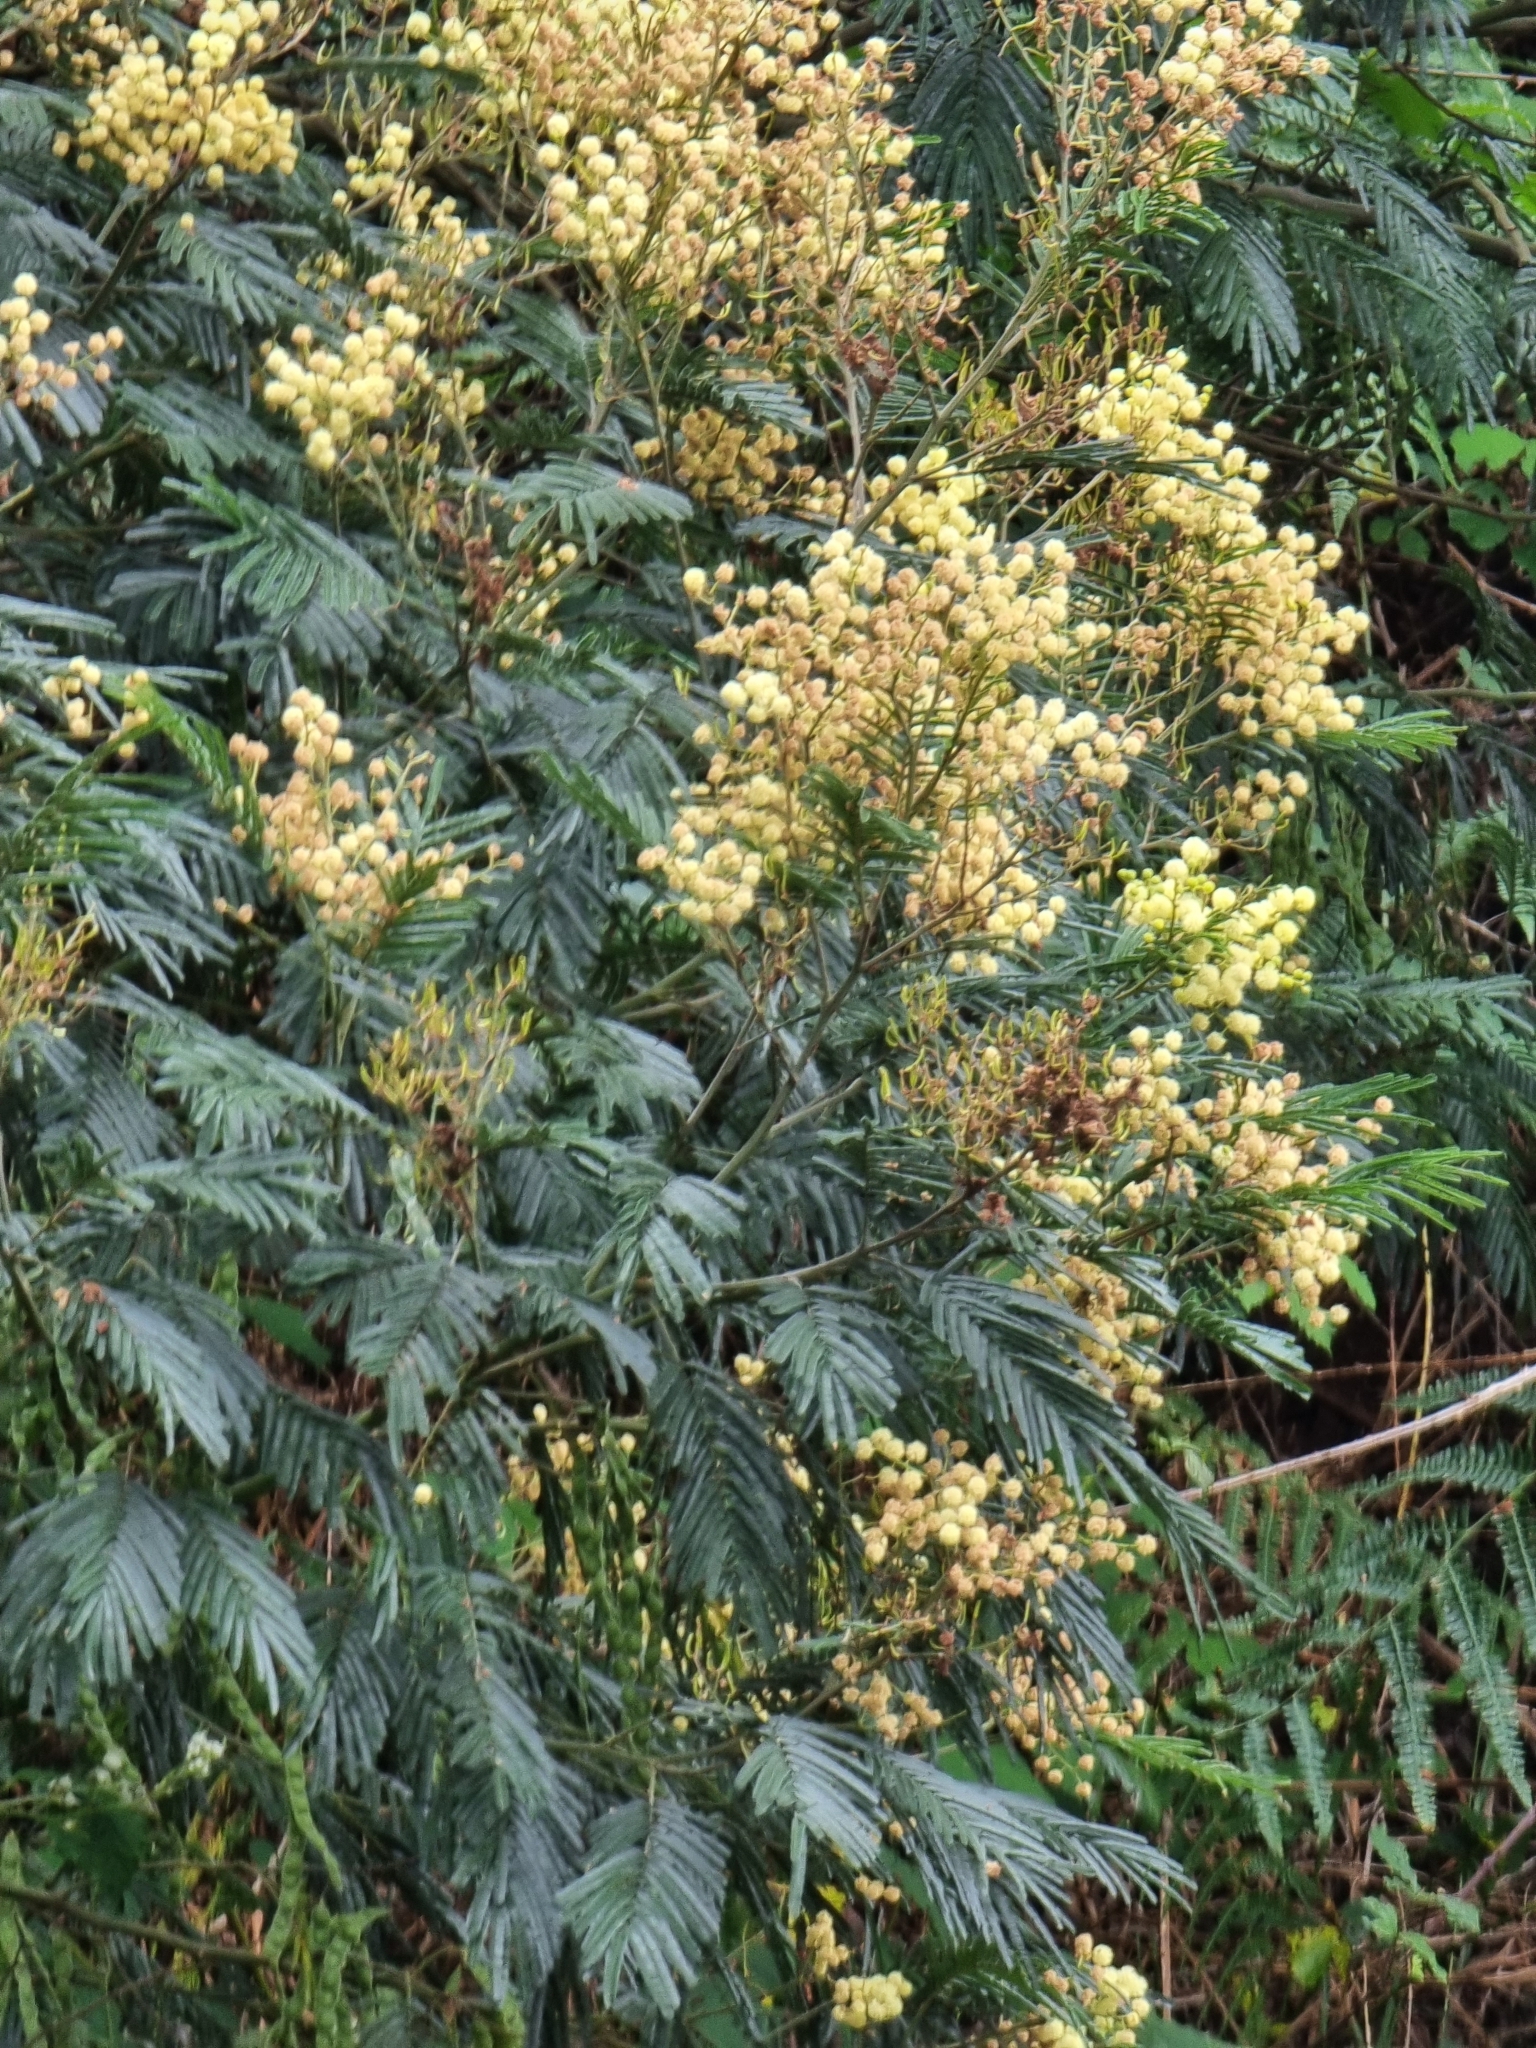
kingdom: Plantae
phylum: Tracheophyta
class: Magnoliopsida
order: Fabales
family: Fabaceae
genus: Acacia
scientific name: Acacia mearnsii
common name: Black wattle
